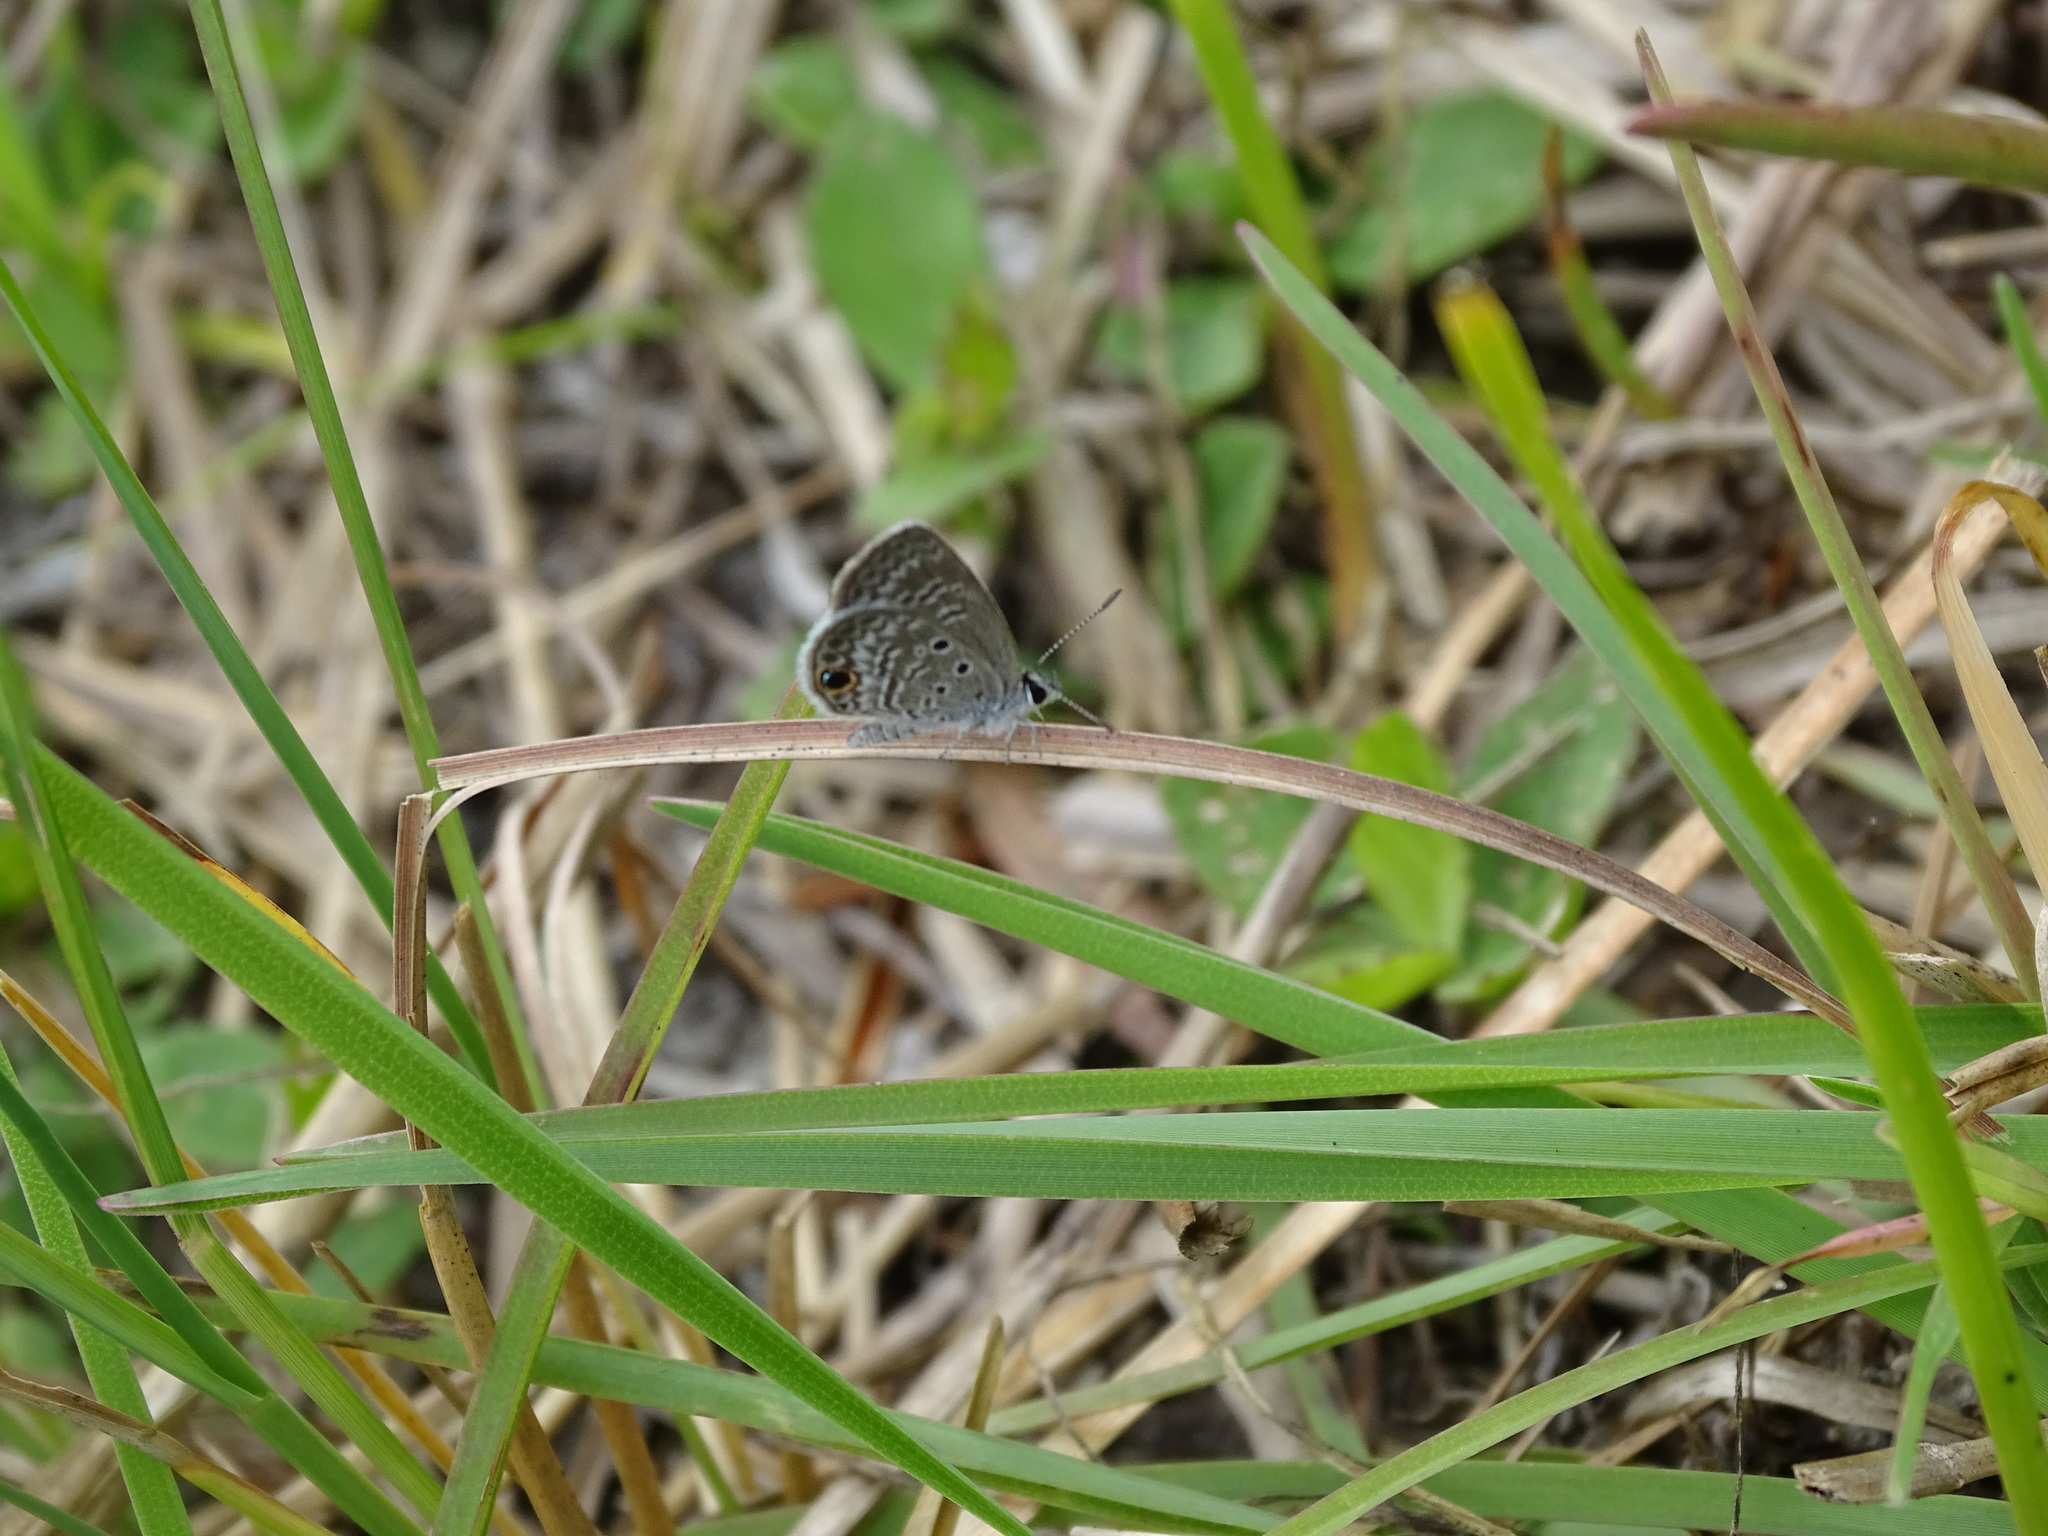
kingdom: Animalia
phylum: Arthropoda
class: Insecta
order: Lepidoptera
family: Lycaenidae
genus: Hemiargus
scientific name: Hemiargus ceraunus
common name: Ceraunus blue
